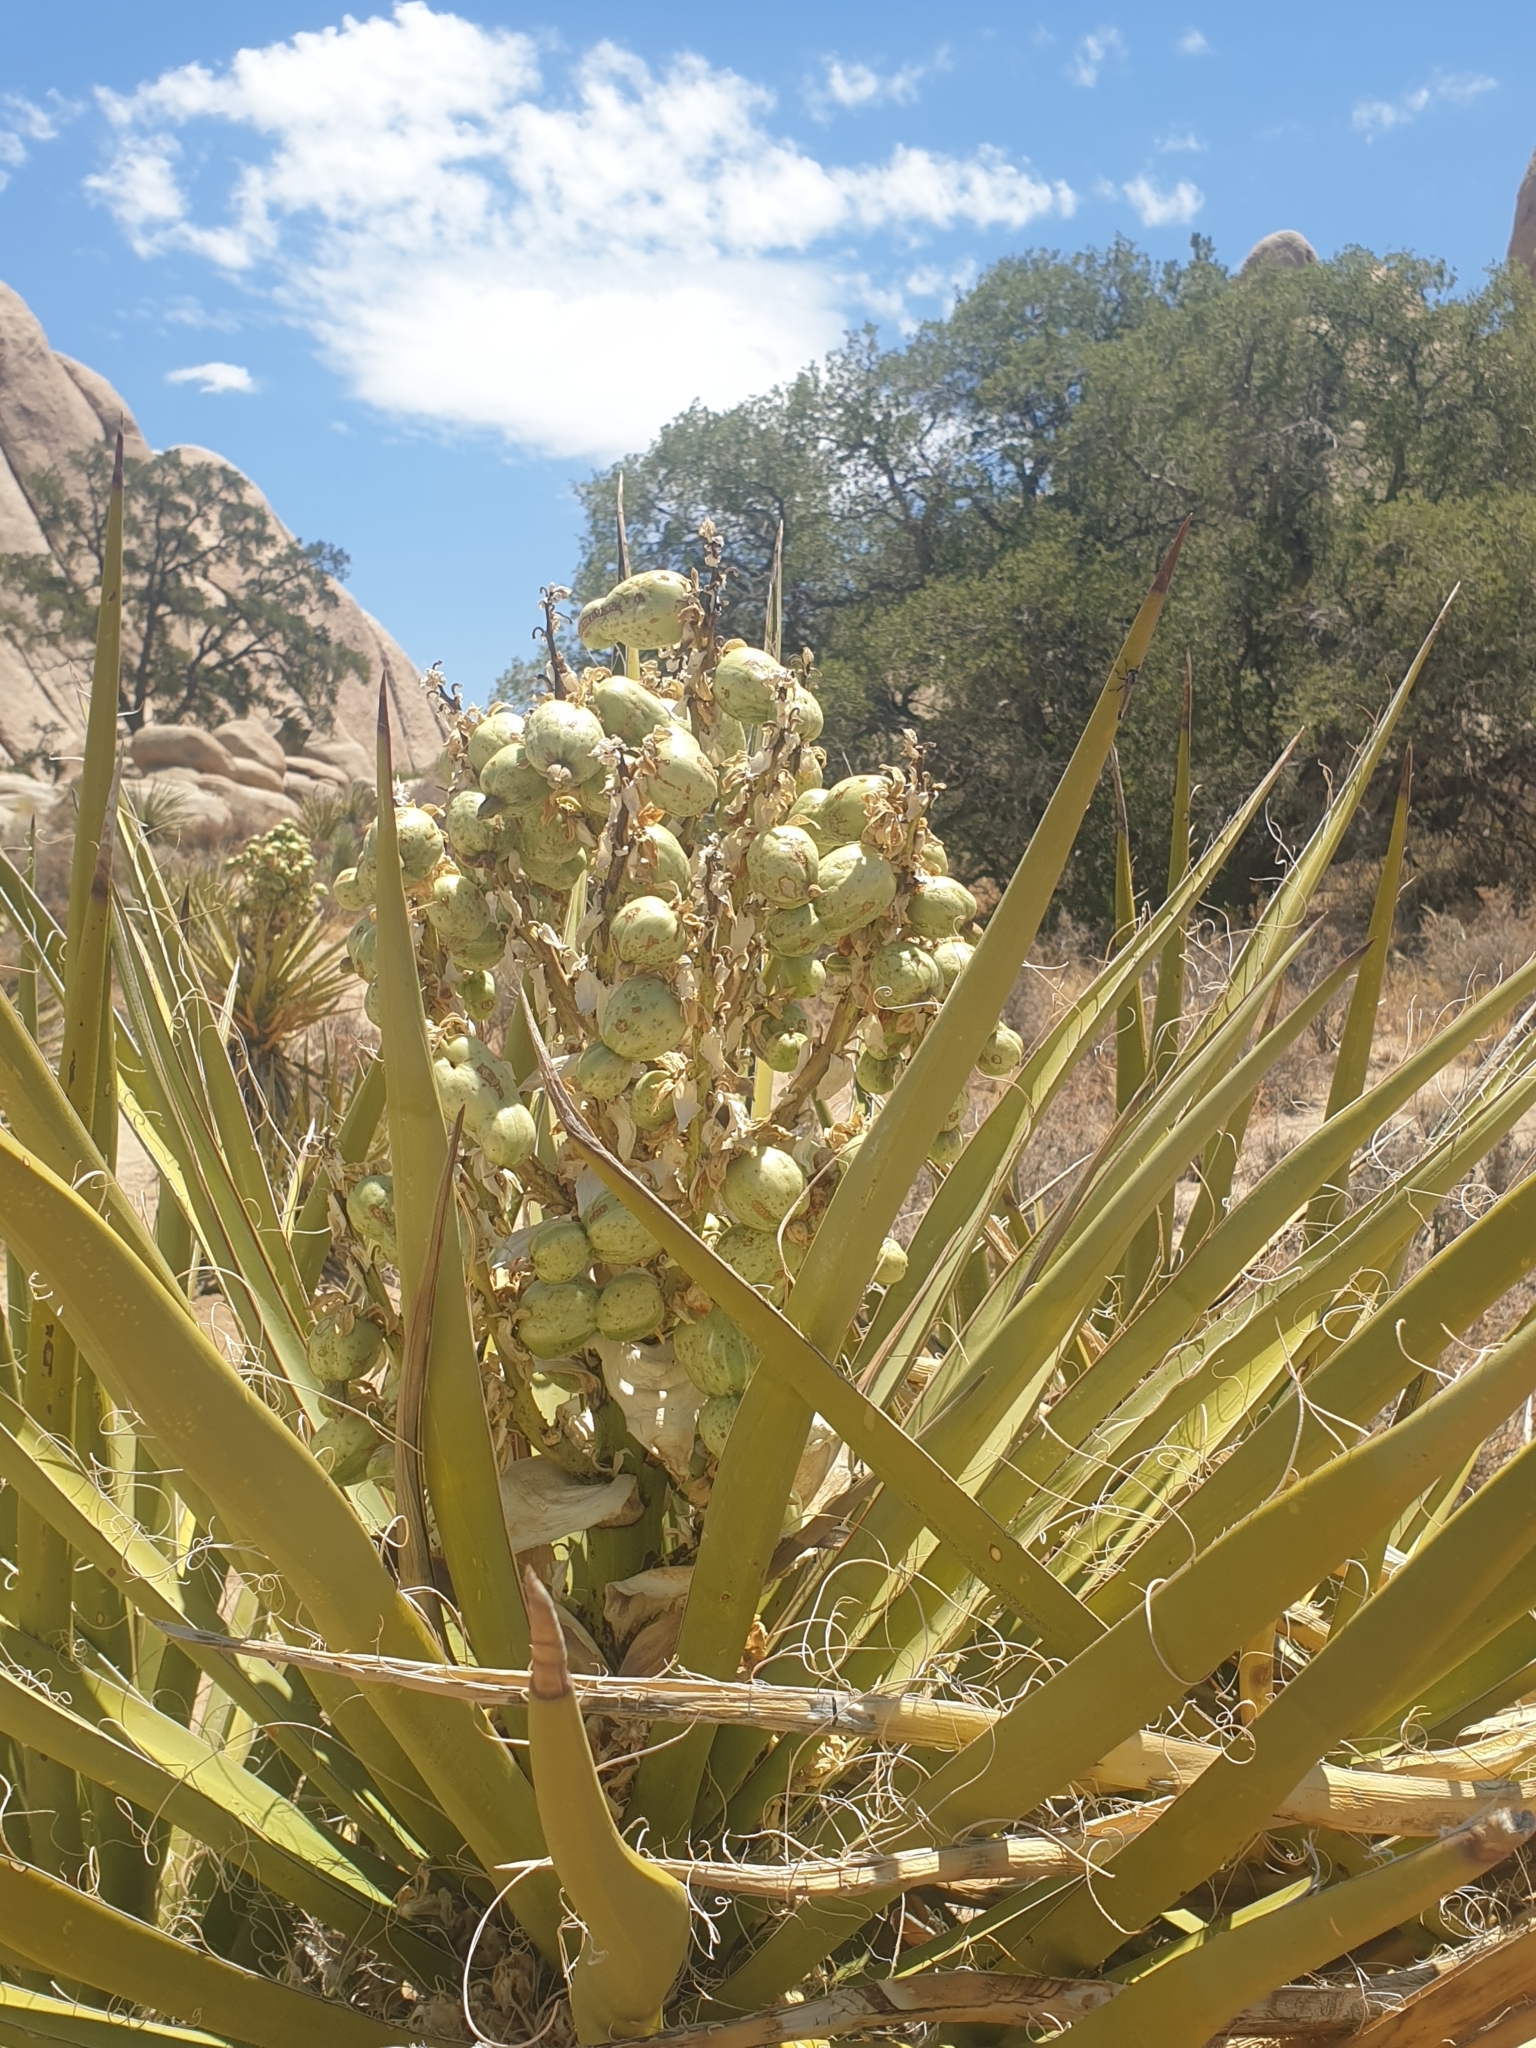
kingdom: Plantae
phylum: Tracheophyta
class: Liliopsida
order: Asparagales
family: Asparagaceae
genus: Yucca
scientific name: Yucca schidigera
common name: Mojave yucca
